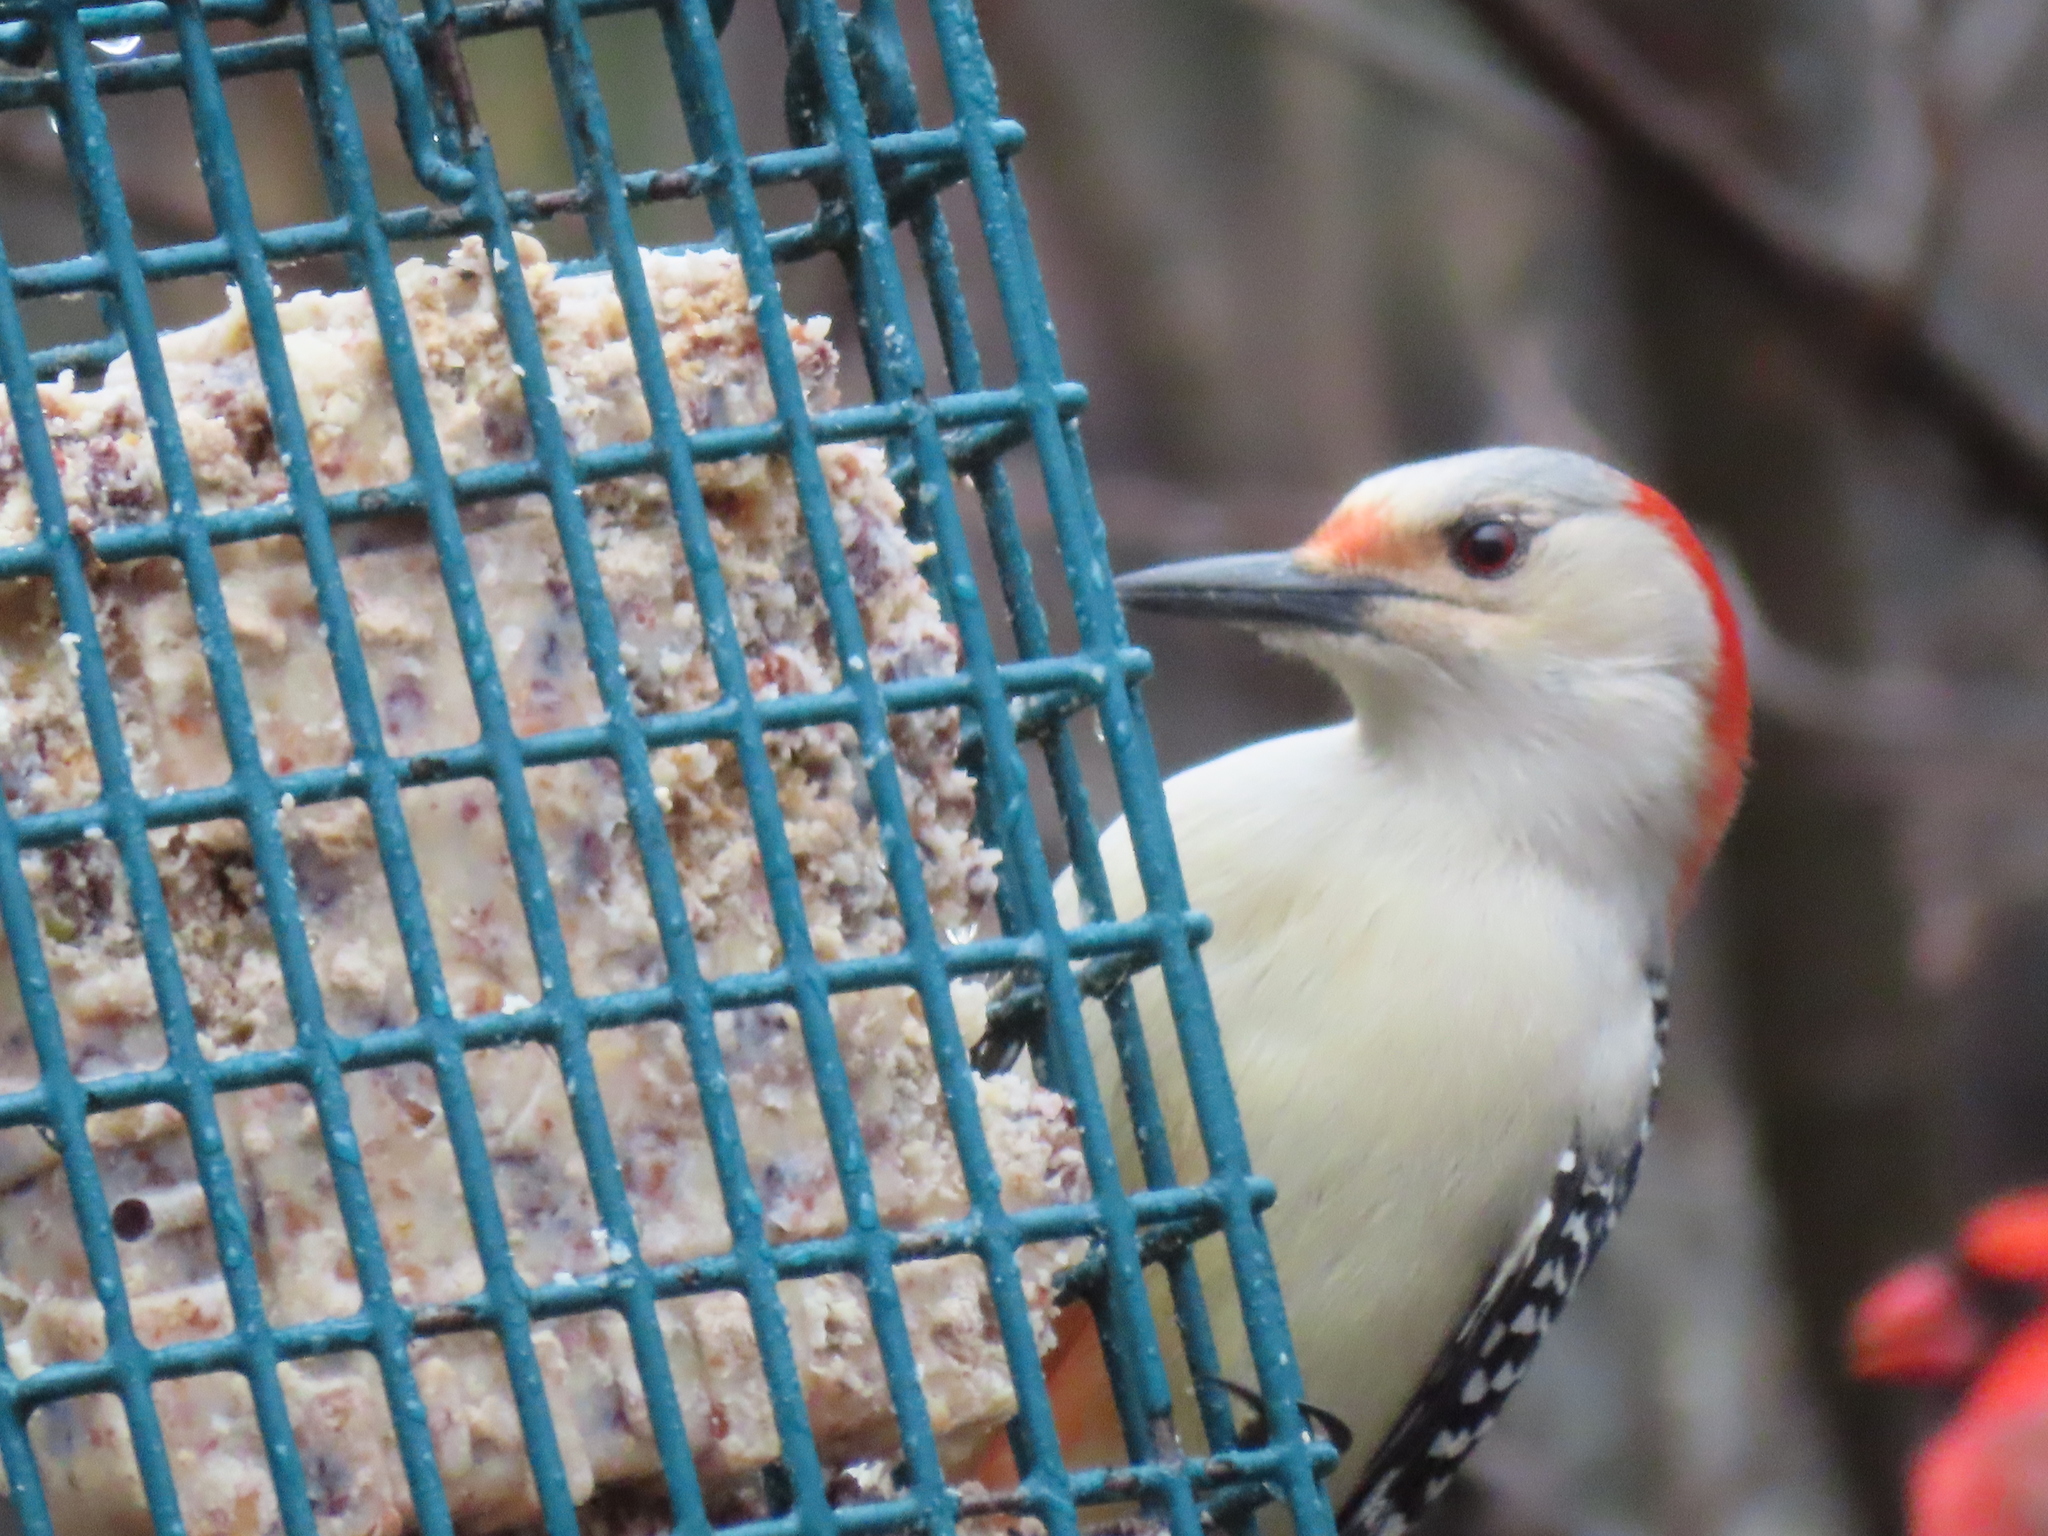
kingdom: Animalia
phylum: Chordata
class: Aves
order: Piciformes
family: Picidae
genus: Melanerpes
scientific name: Melanerpes carolinus
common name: Red-bellied woodpecker
